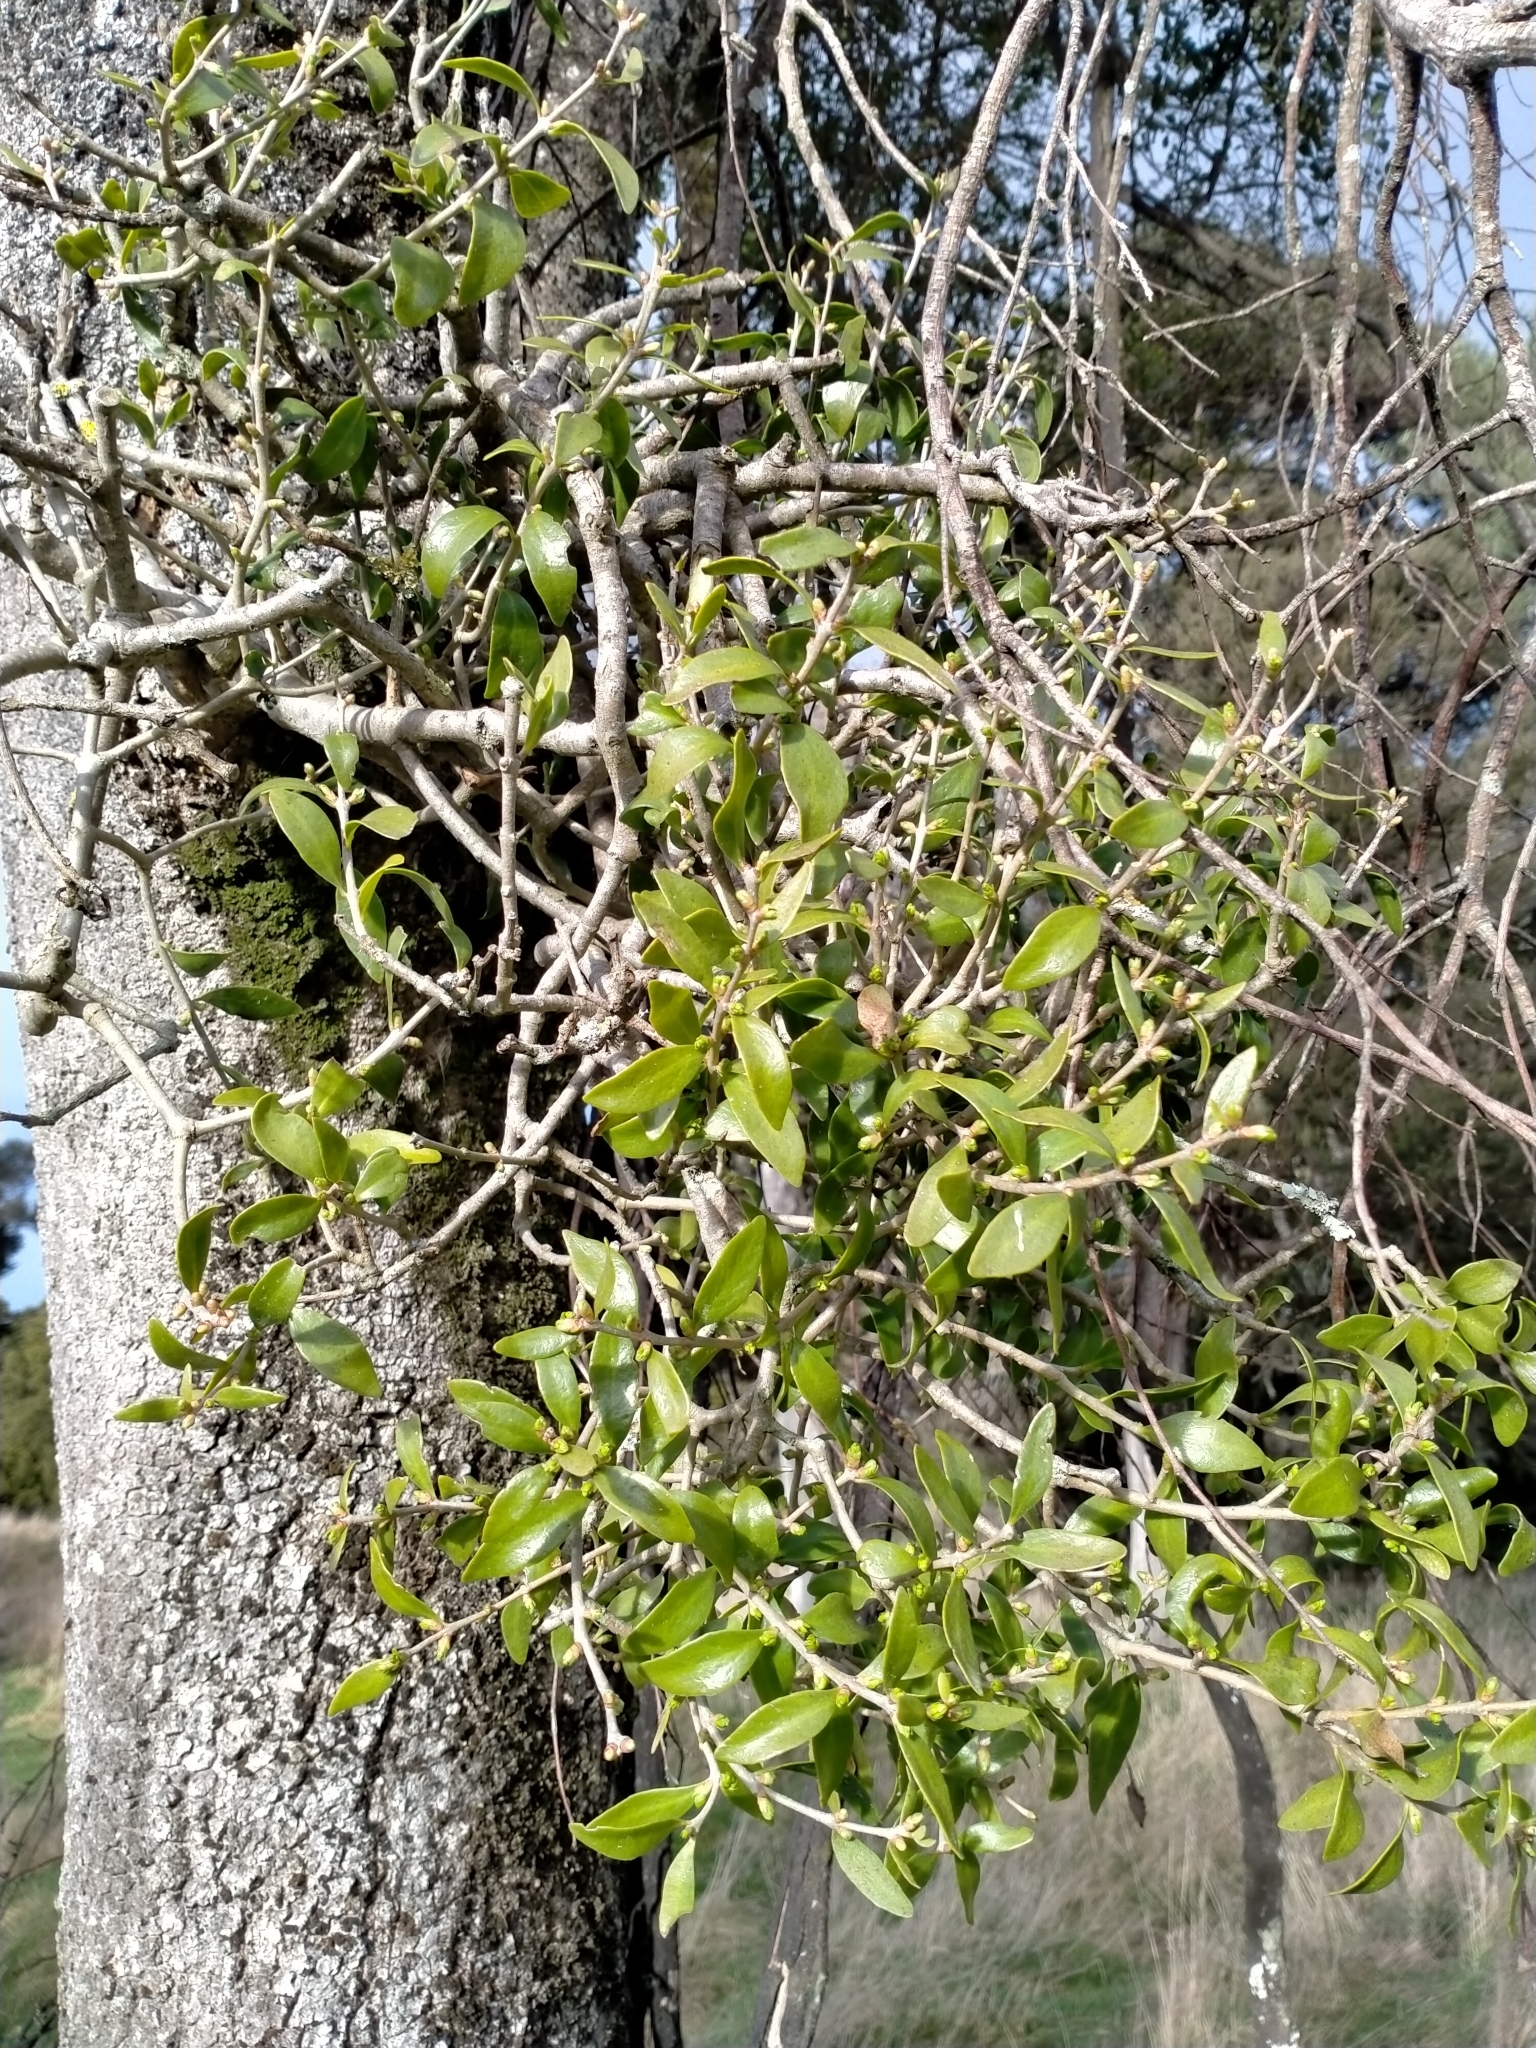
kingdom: Plantae
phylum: Tracheophyta
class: Magnoliopsida
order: Santalales
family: Loranthaceae
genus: Tupeia
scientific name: Tupeia antarctica
